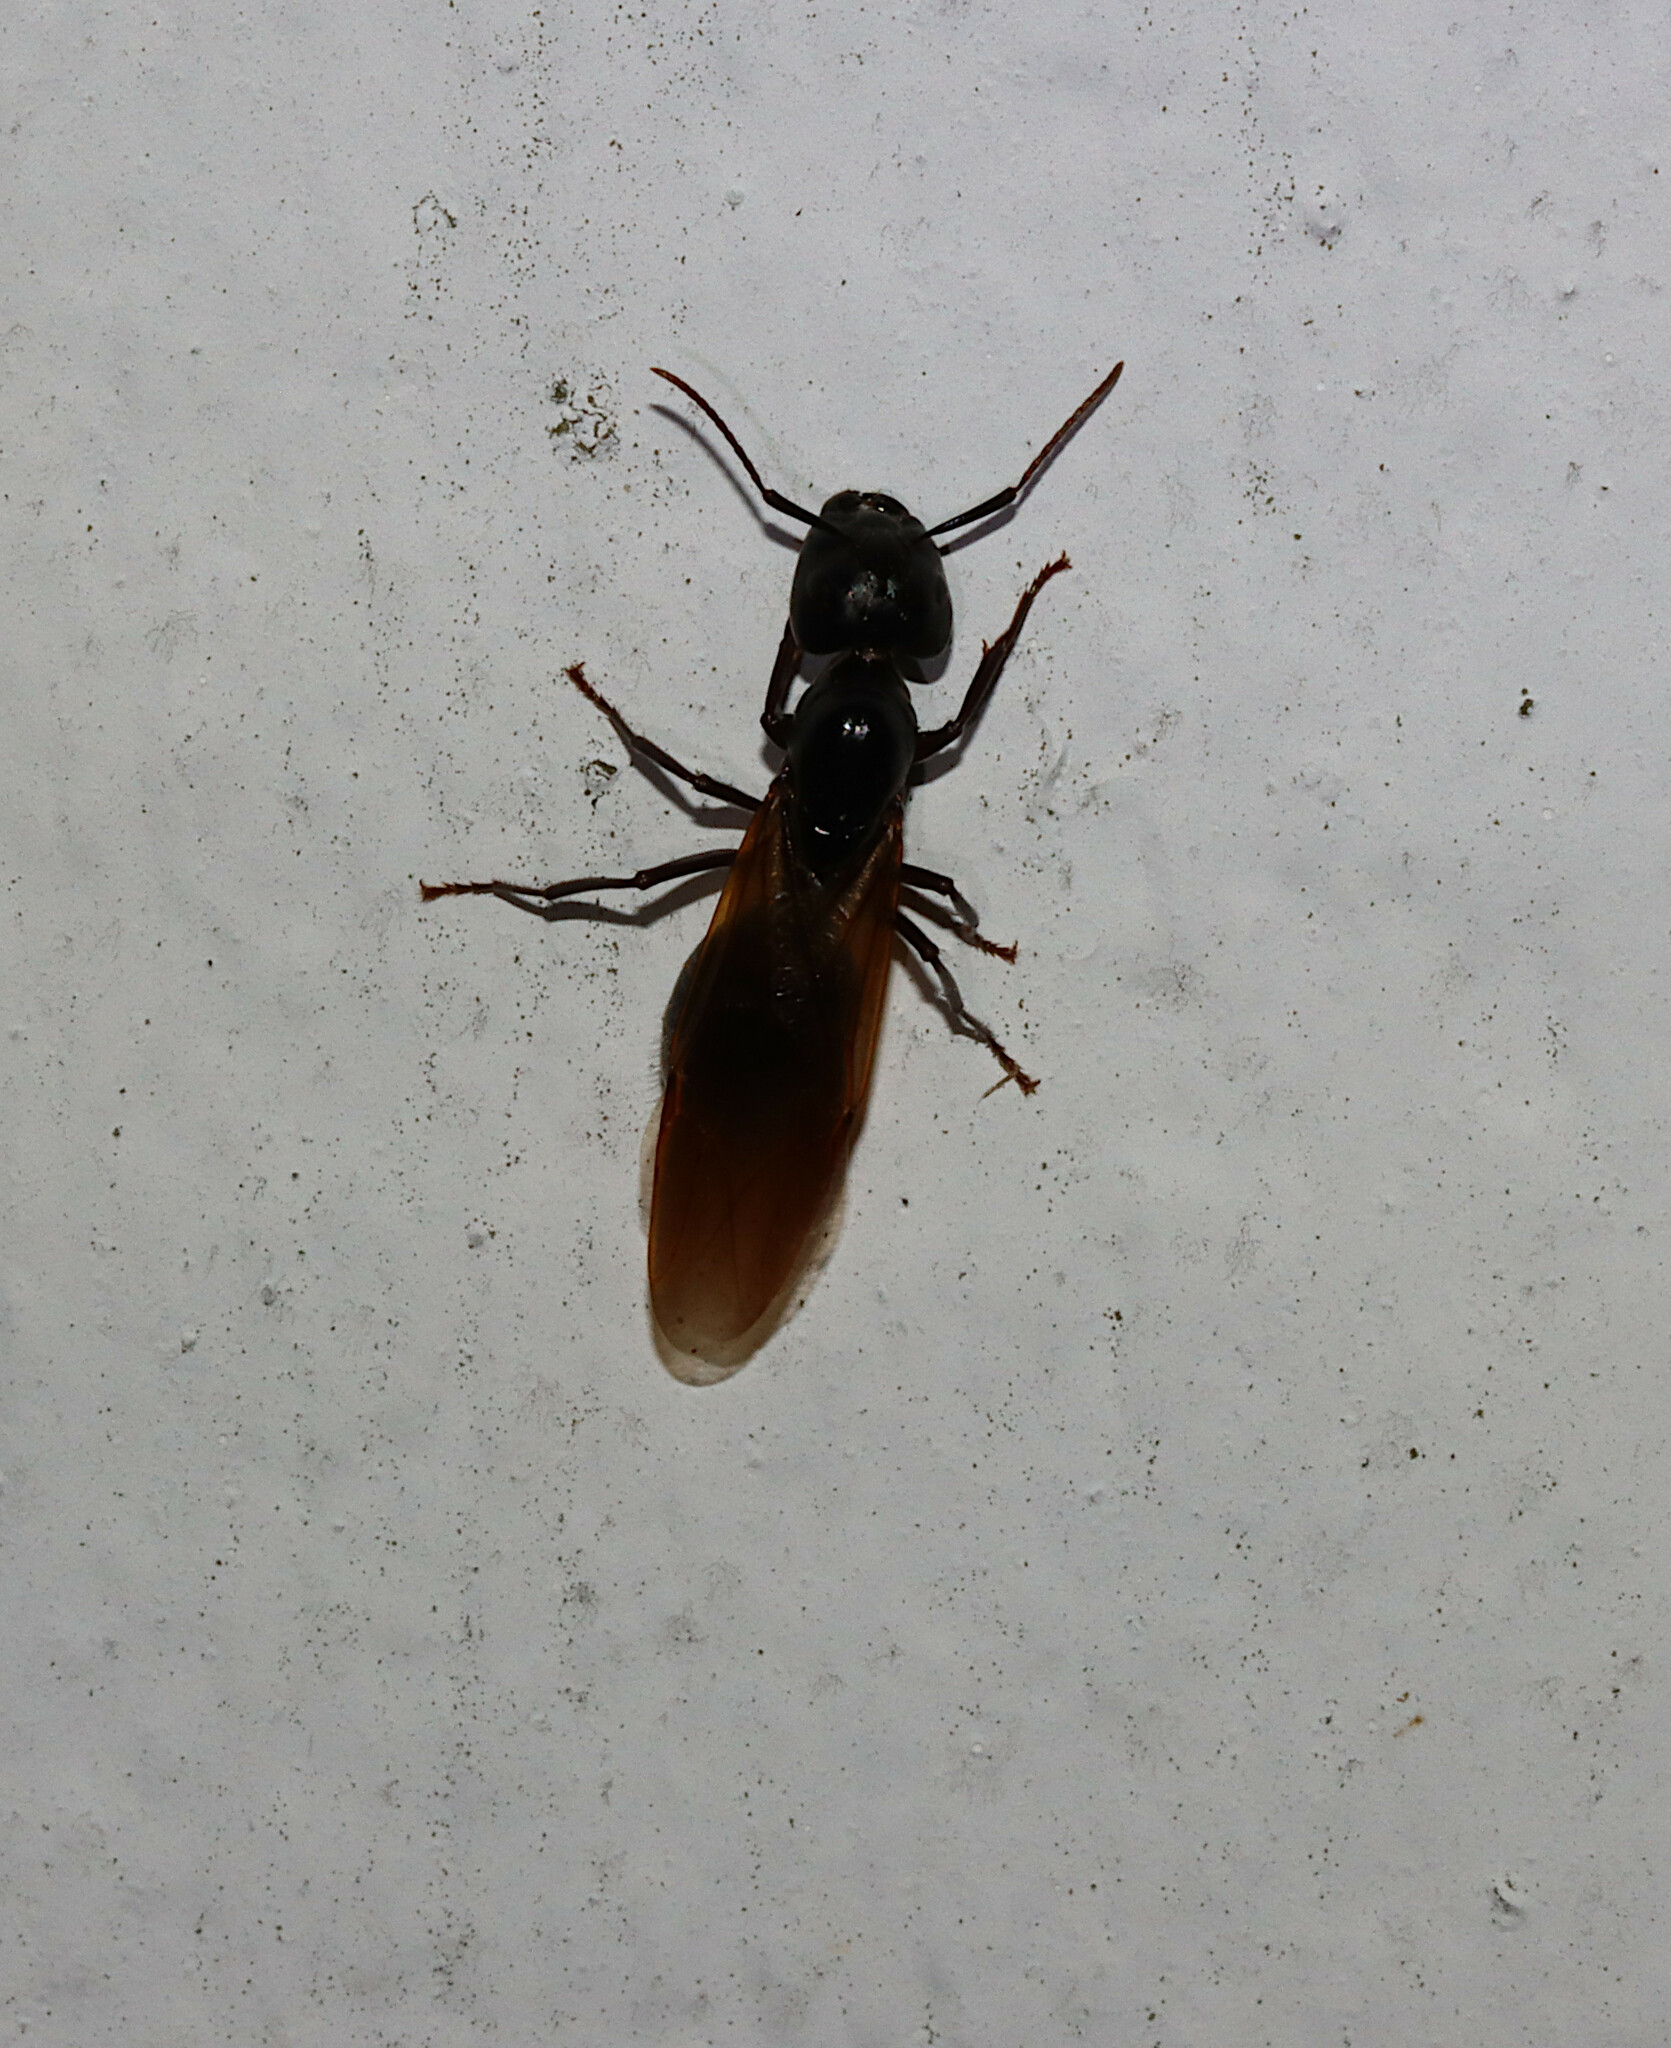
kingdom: Animalia
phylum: Arthropoda
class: Insecta
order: Hymenoptera
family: Formicidae
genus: Camponotus
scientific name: Camponotus pennsylvanicus
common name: Black carpenter ant
